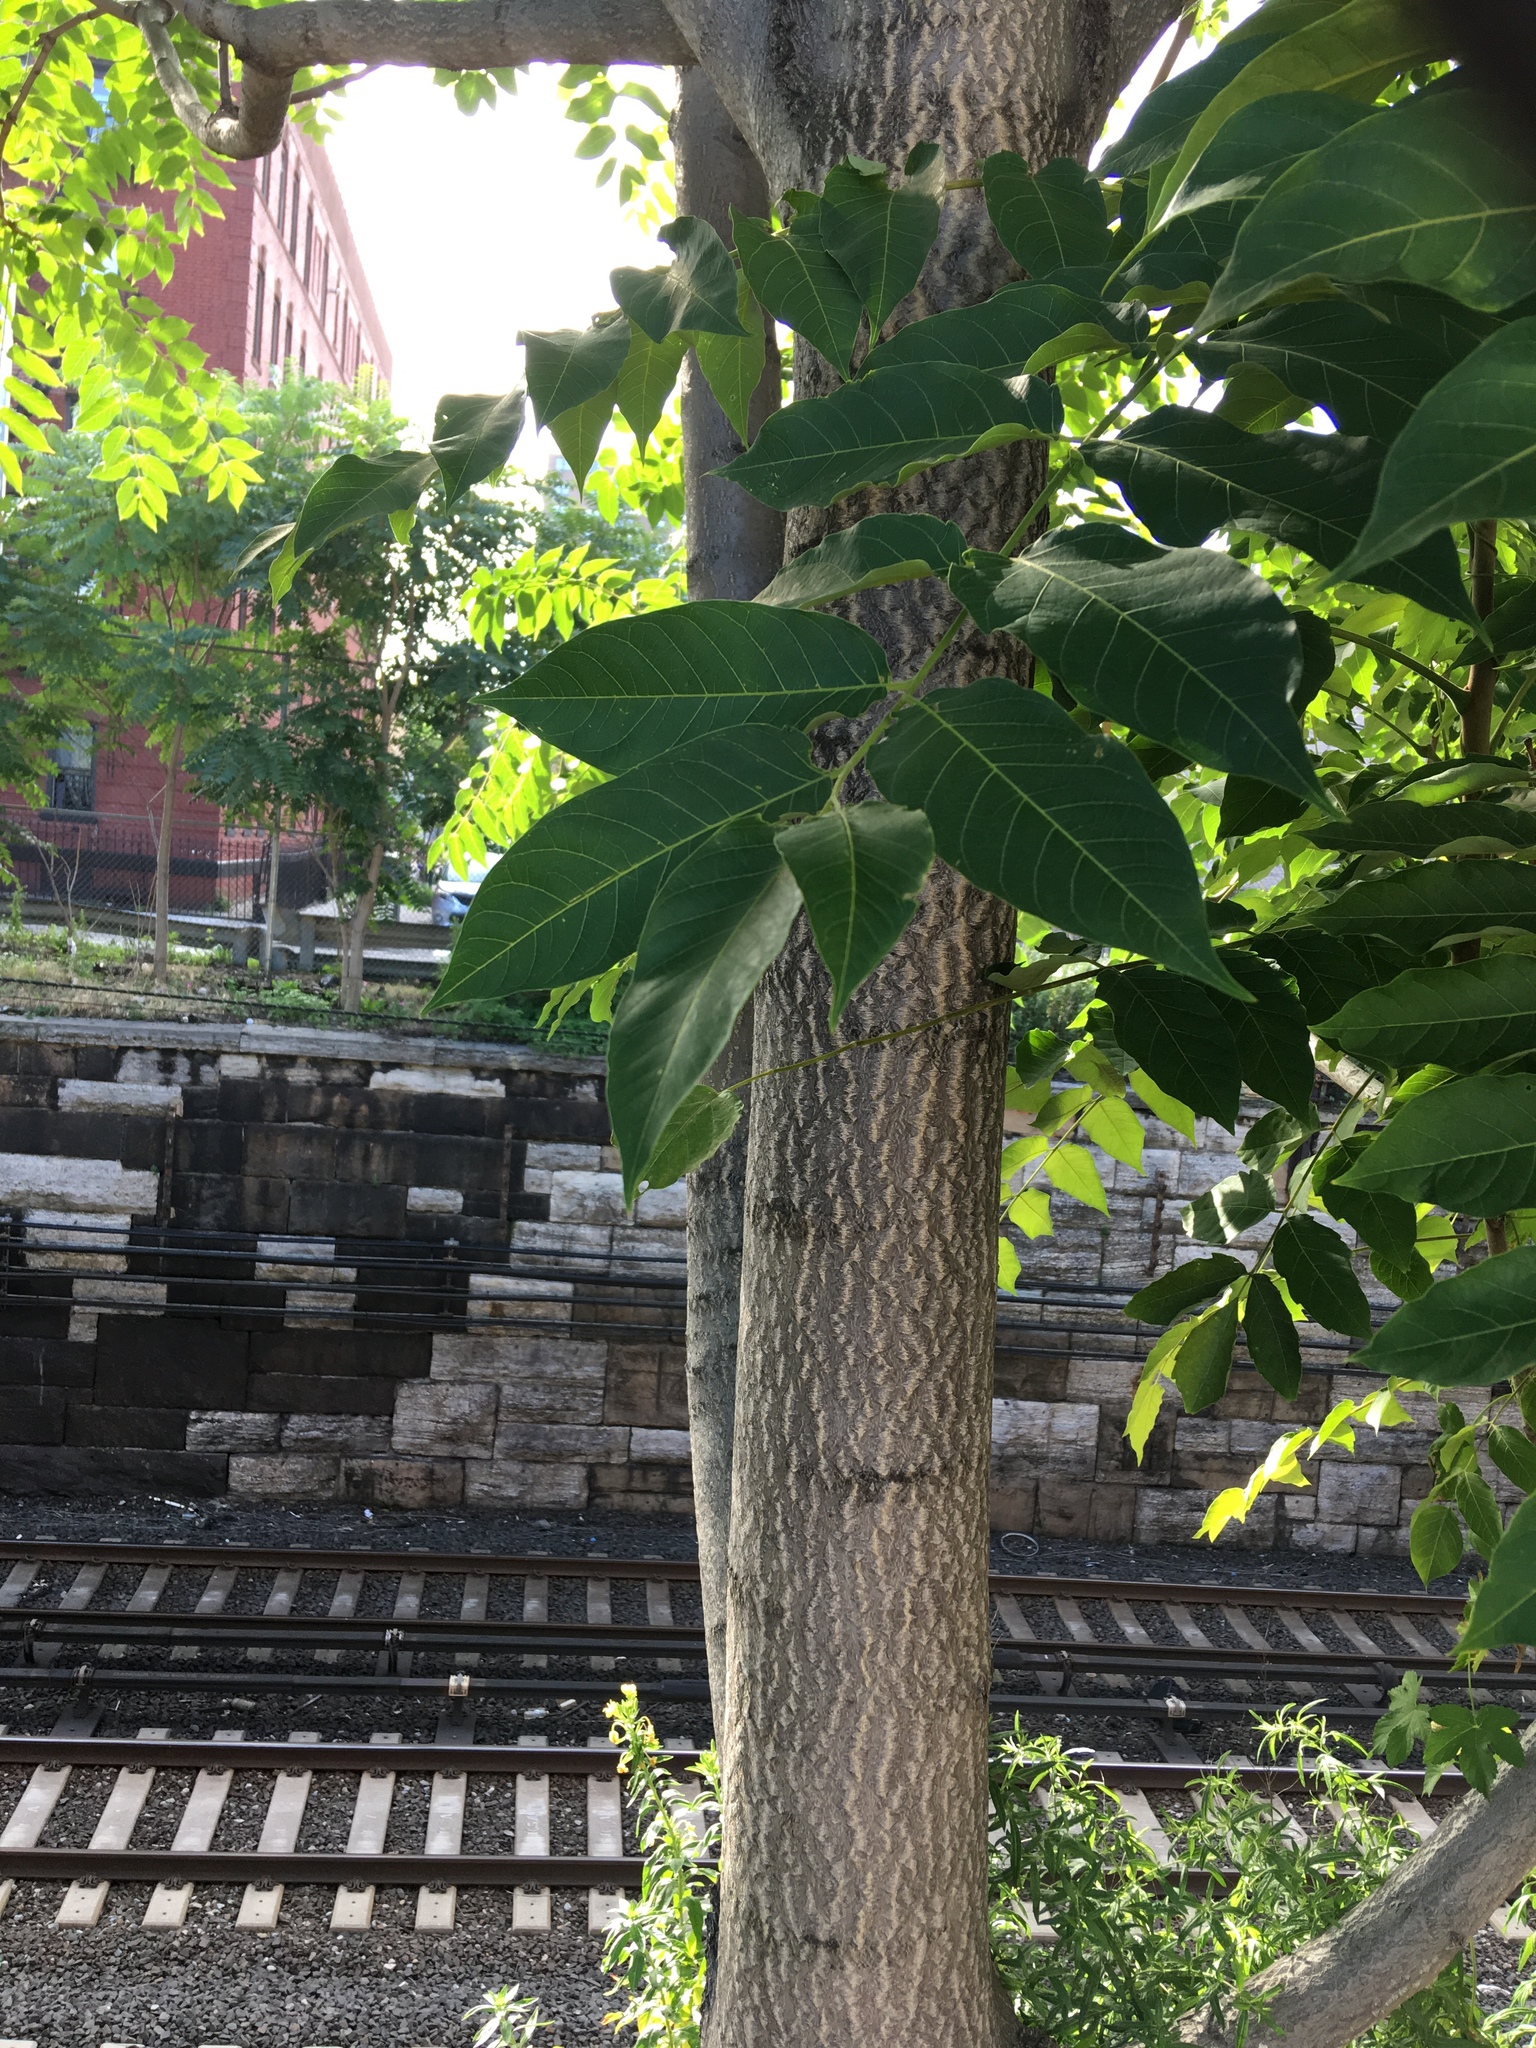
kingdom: Plantae
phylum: Tracheophyta
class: Magnoliopsida
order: Sapindales
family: Simaroubaceae
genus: Ailanthus
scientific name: Ailanthus altissima
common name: Tree-of-heaven
